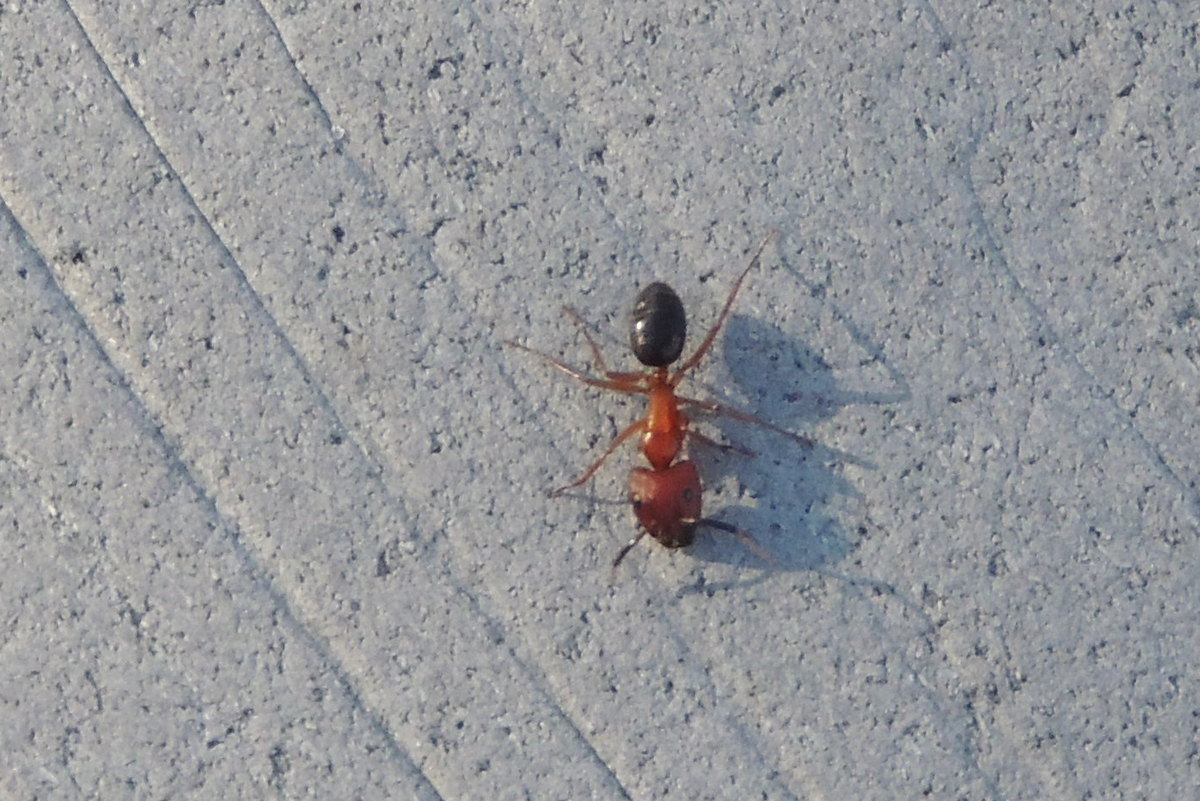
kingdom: Animalia
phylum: Arthropoda
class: Insecta
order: Hymenoptera
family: Formicidae
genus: Camponotus
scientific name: Camponotus floridanus
